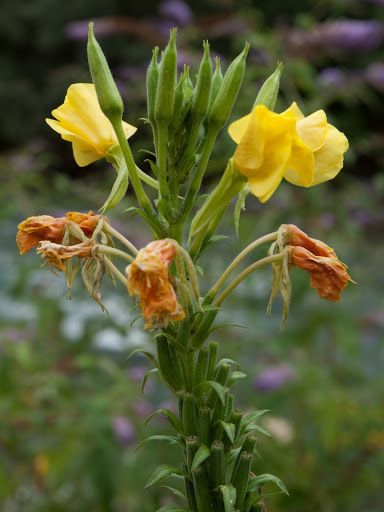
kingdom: Plantae
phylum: Tracheophyta
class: Magnoliopsida
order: Myrtales
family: Onagraceae
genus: Oenothera
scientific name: Oenothera biennis
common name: Common evening-primrose
